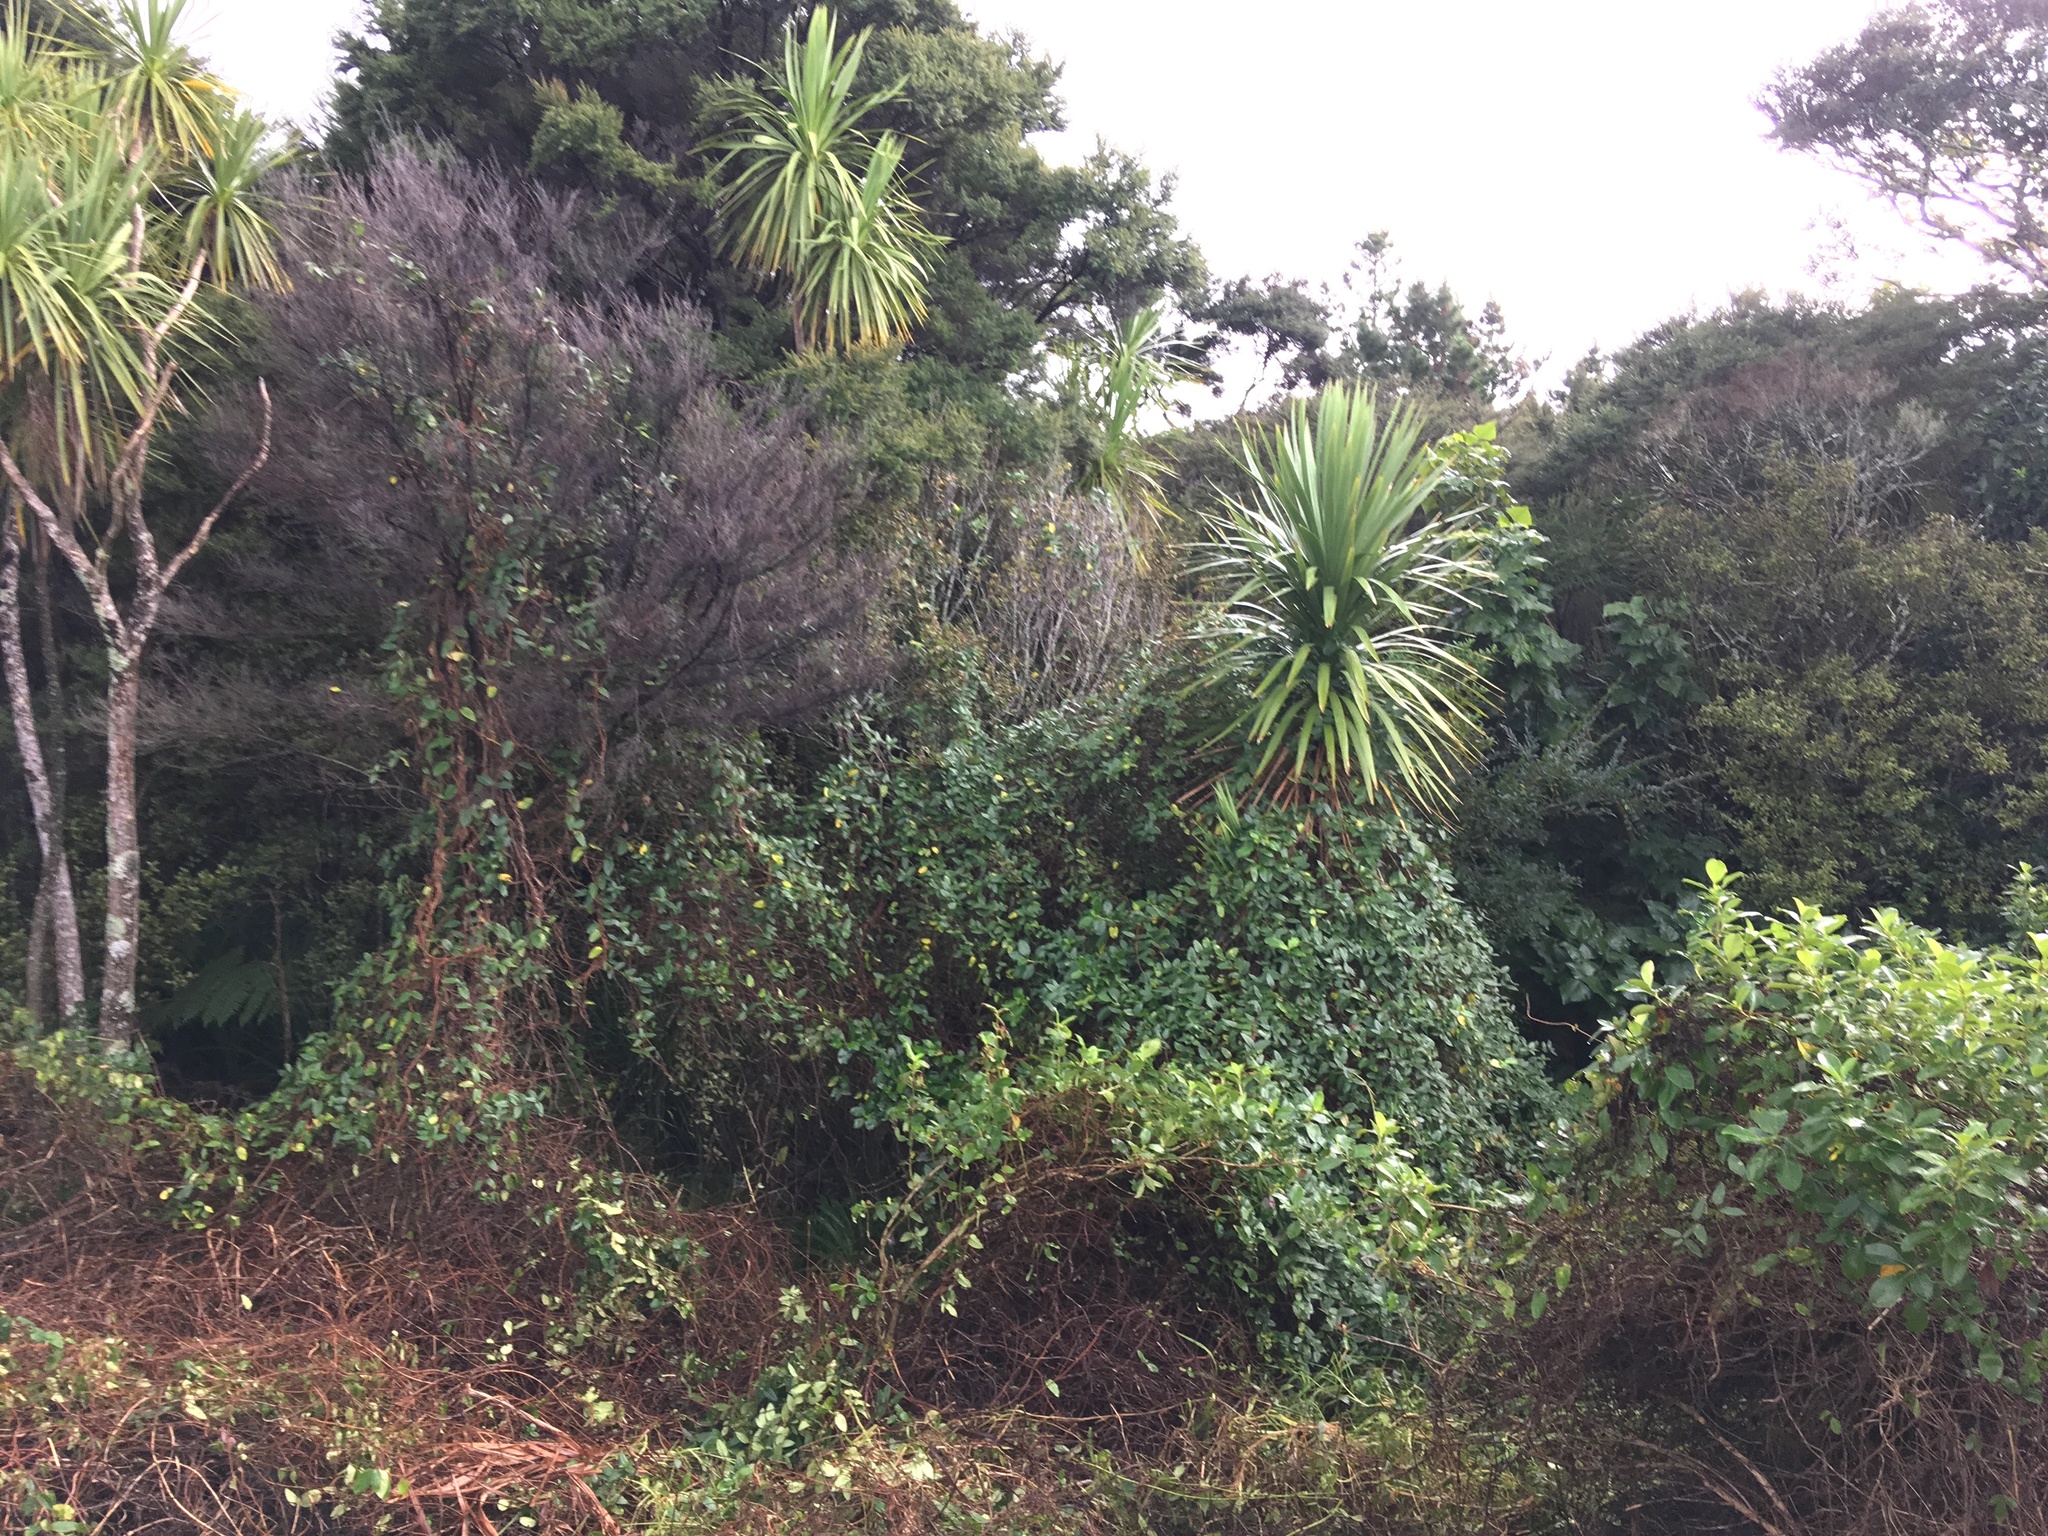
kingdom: Plantae
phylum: Tracheophyta
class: Liliopsida
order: Asparagales
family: Asparagaceae
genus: Cordyline
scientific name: Cordyline australis
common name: Cabbage-palm
